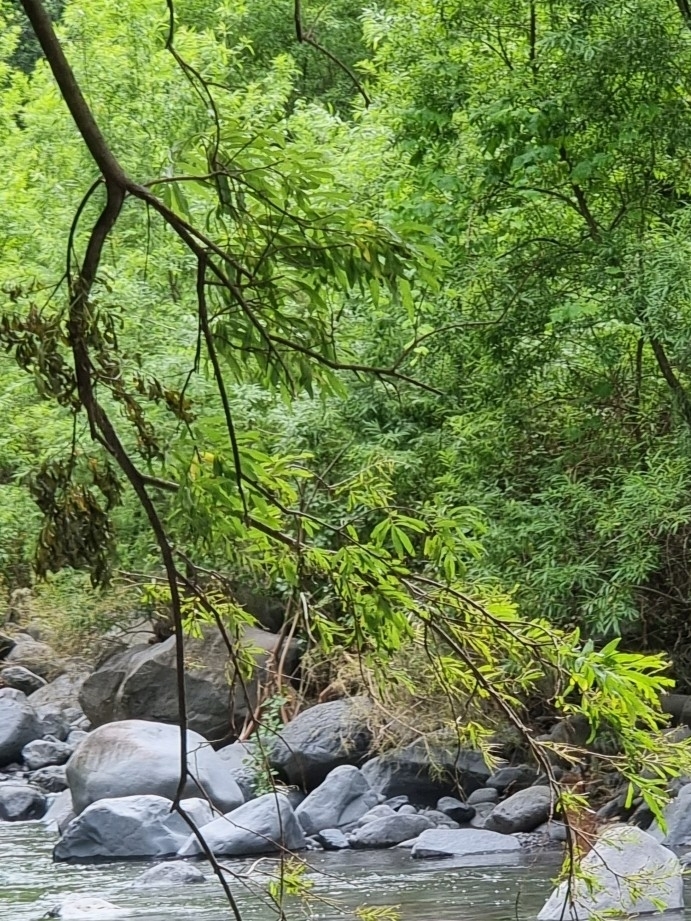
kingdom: Plantae
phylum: Tracheophyta
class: Magnoliopsida
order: Malpighiales
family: Salicaceae
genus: Salix
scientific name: Salix canariensis
